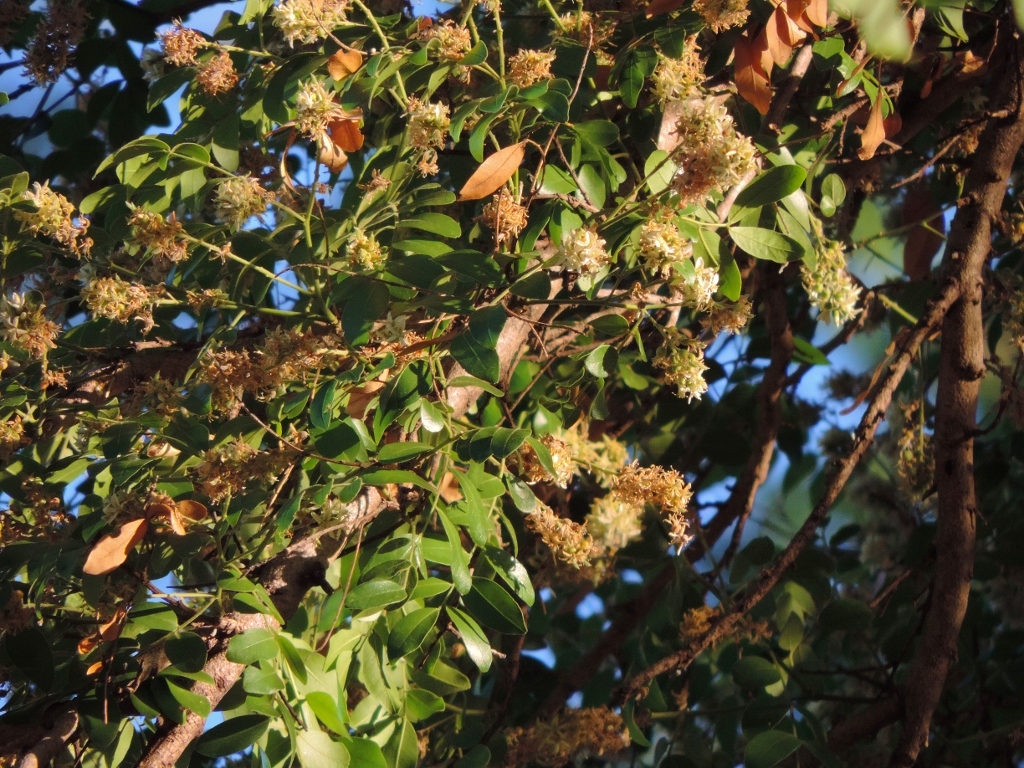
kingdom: Plantae
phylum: Tracheophyta
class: Magnoliopsida
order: Fabales
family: Fabaceae
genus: Xanthocercis
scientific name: Xanthocercis zambesiaca
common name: Nyala-tree
